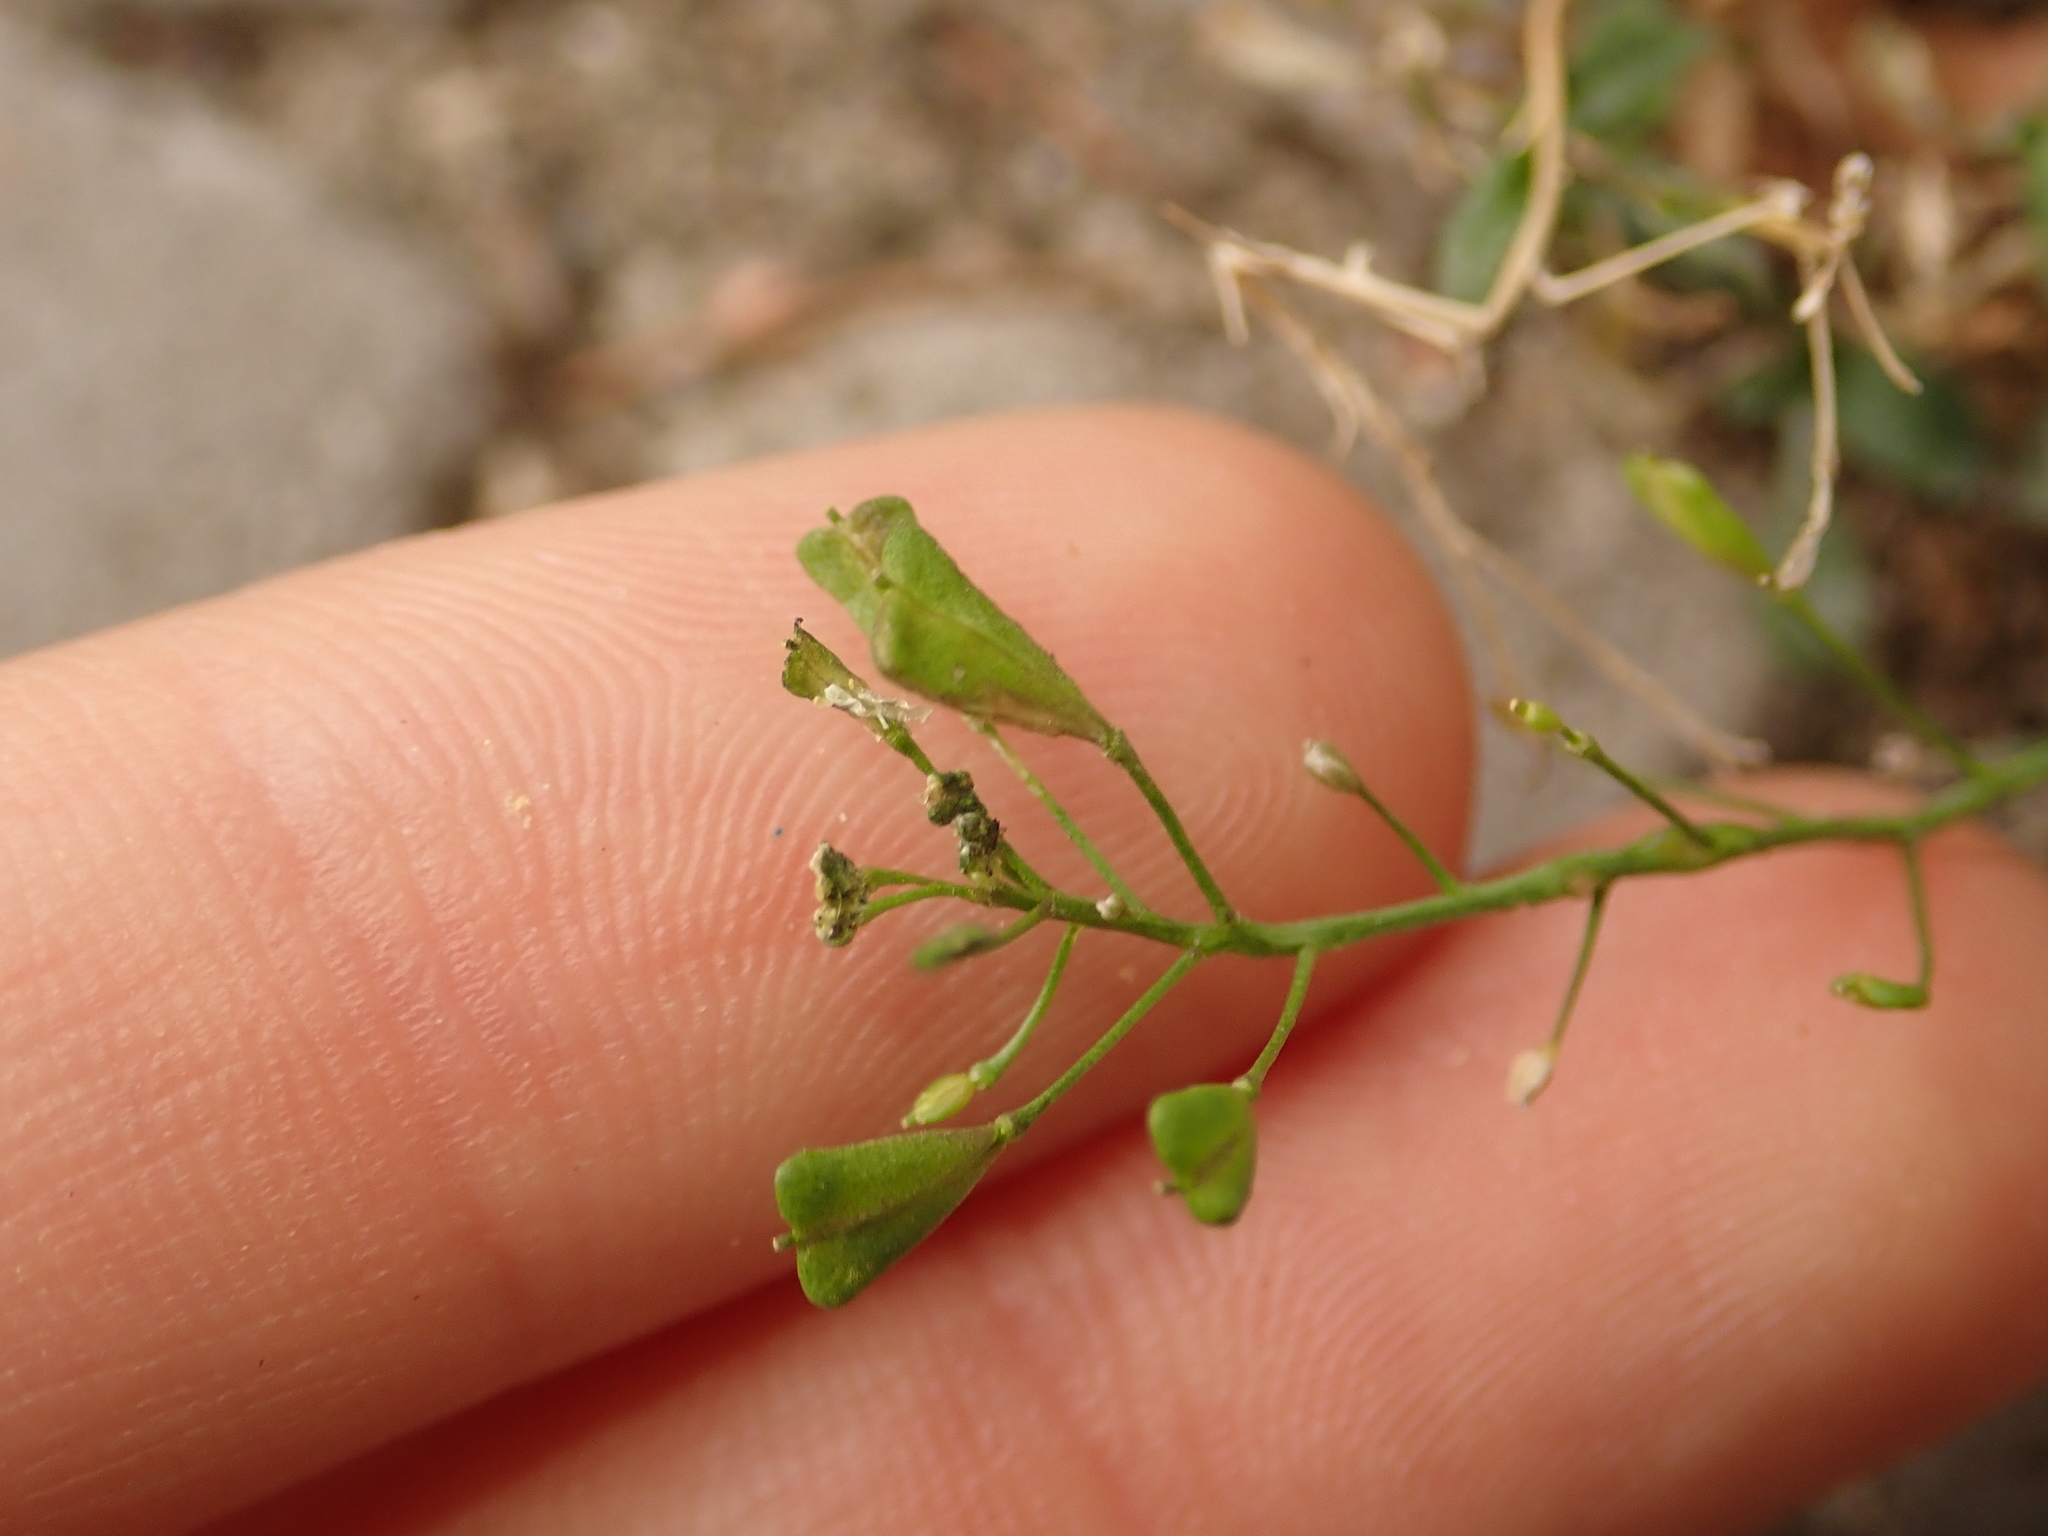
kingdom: Plantae
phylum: Tracheophyta
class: Magnoliopsida
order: Brassicales
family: Brassicaceae
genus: Capsella
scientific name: Capsella bursa-pastoris
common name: Shepherd's purse
